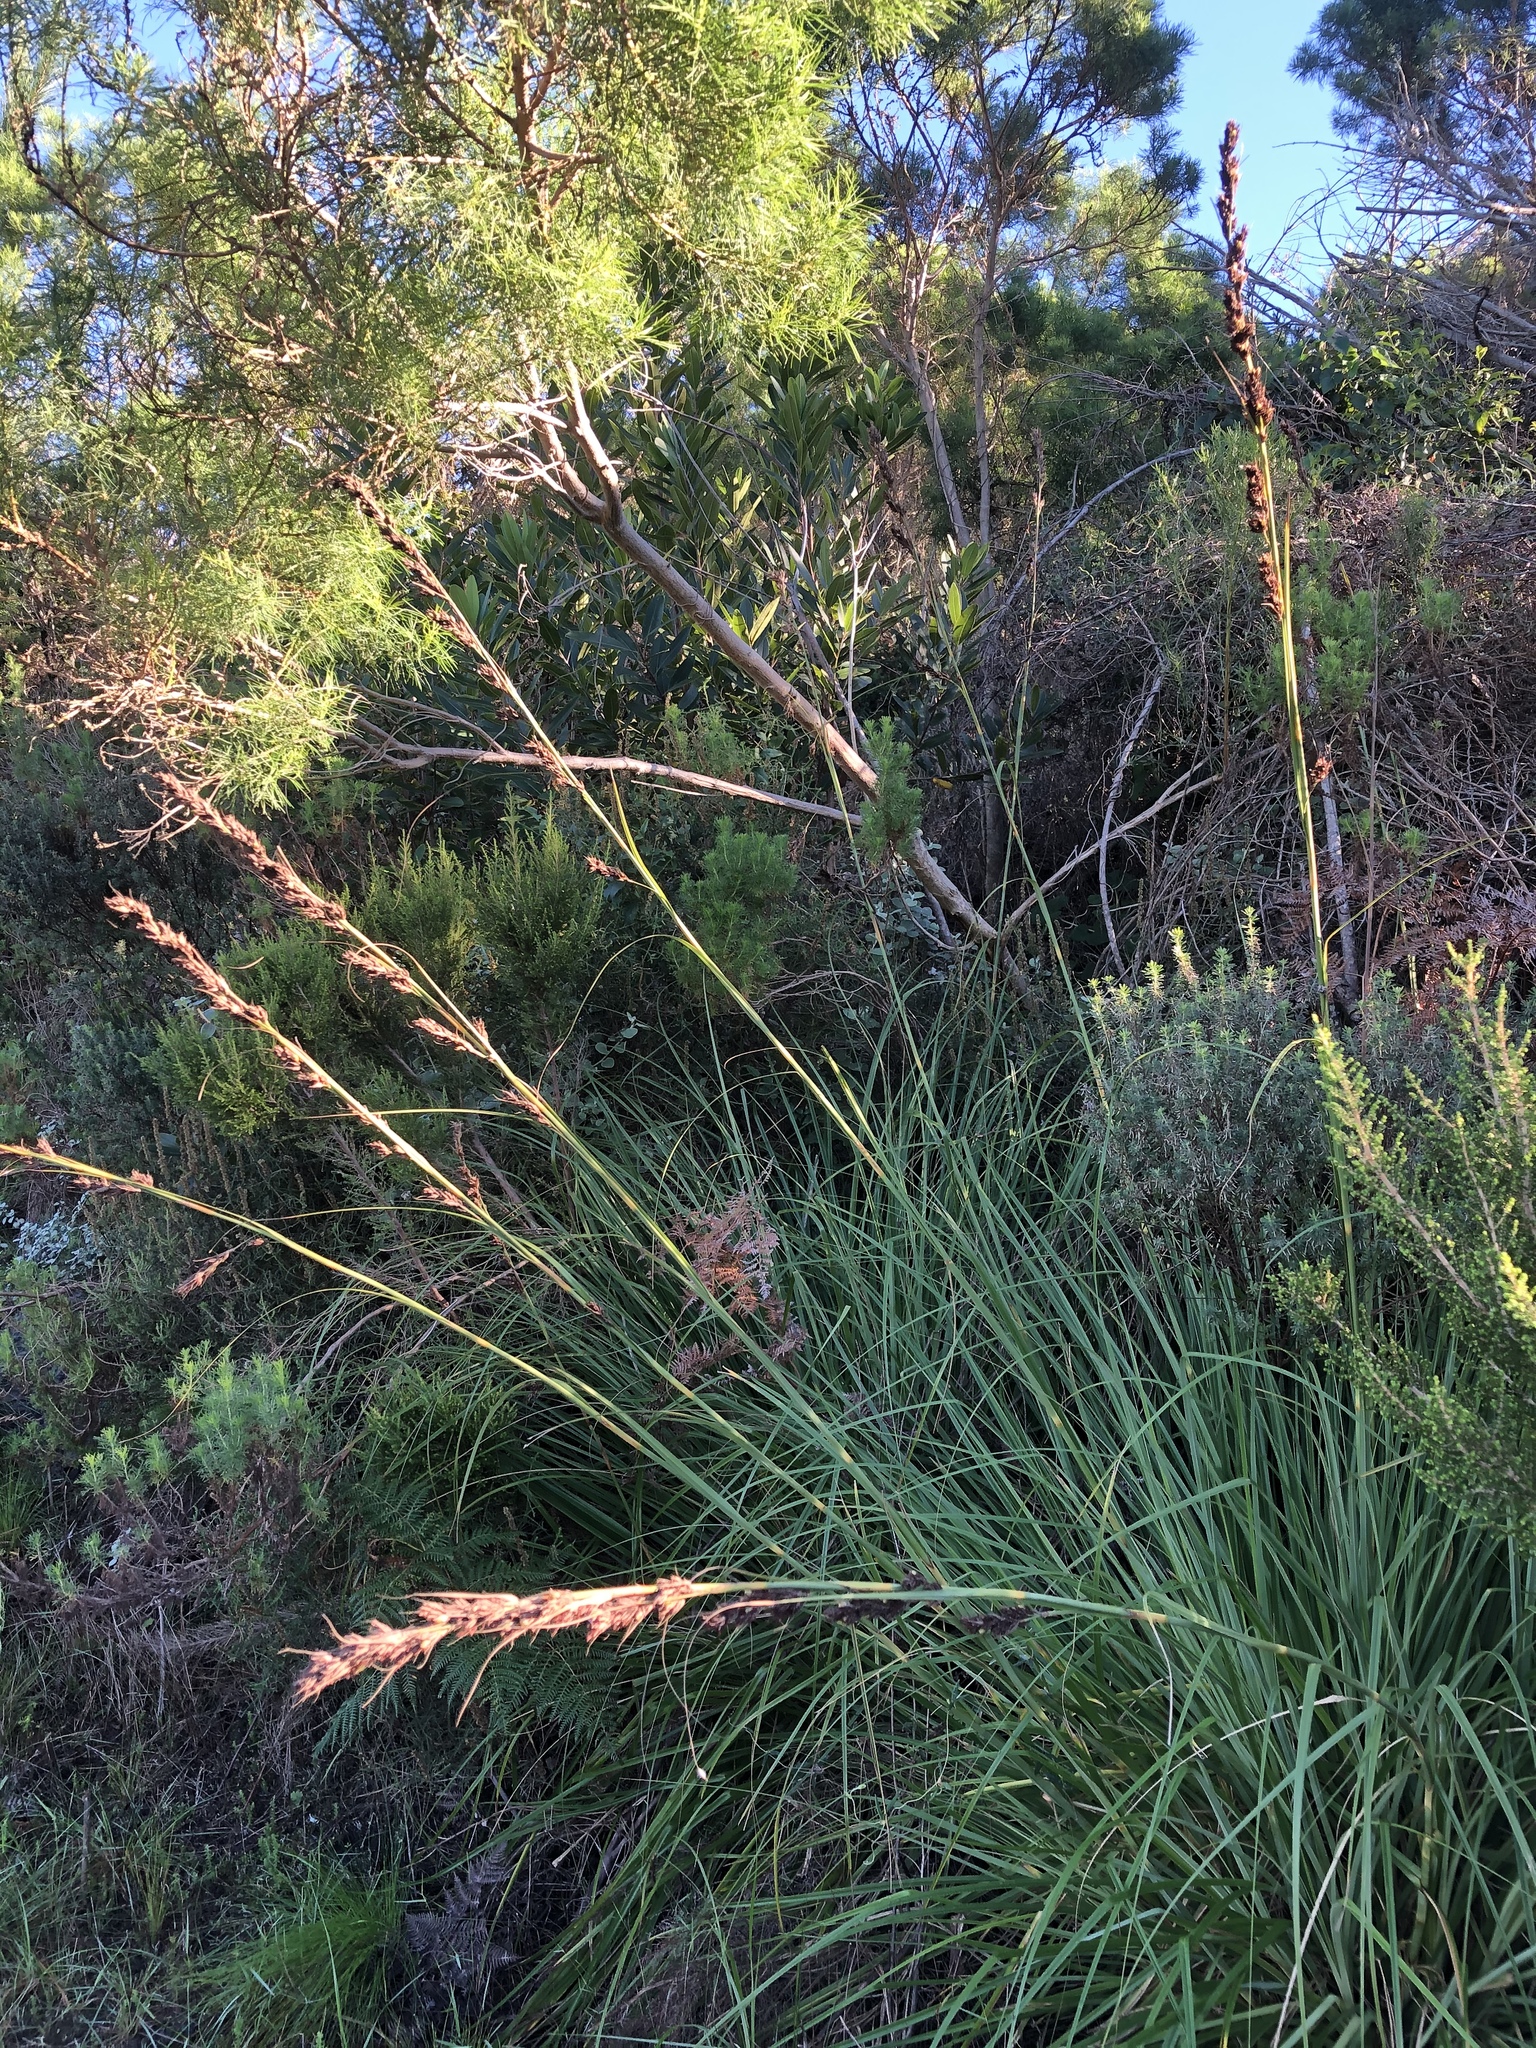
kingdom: Plantae
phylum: Tracheophyta
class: Liliopsida
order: Poales
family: Cyperaceae
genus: Tetraria
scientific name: Tetraria secans
